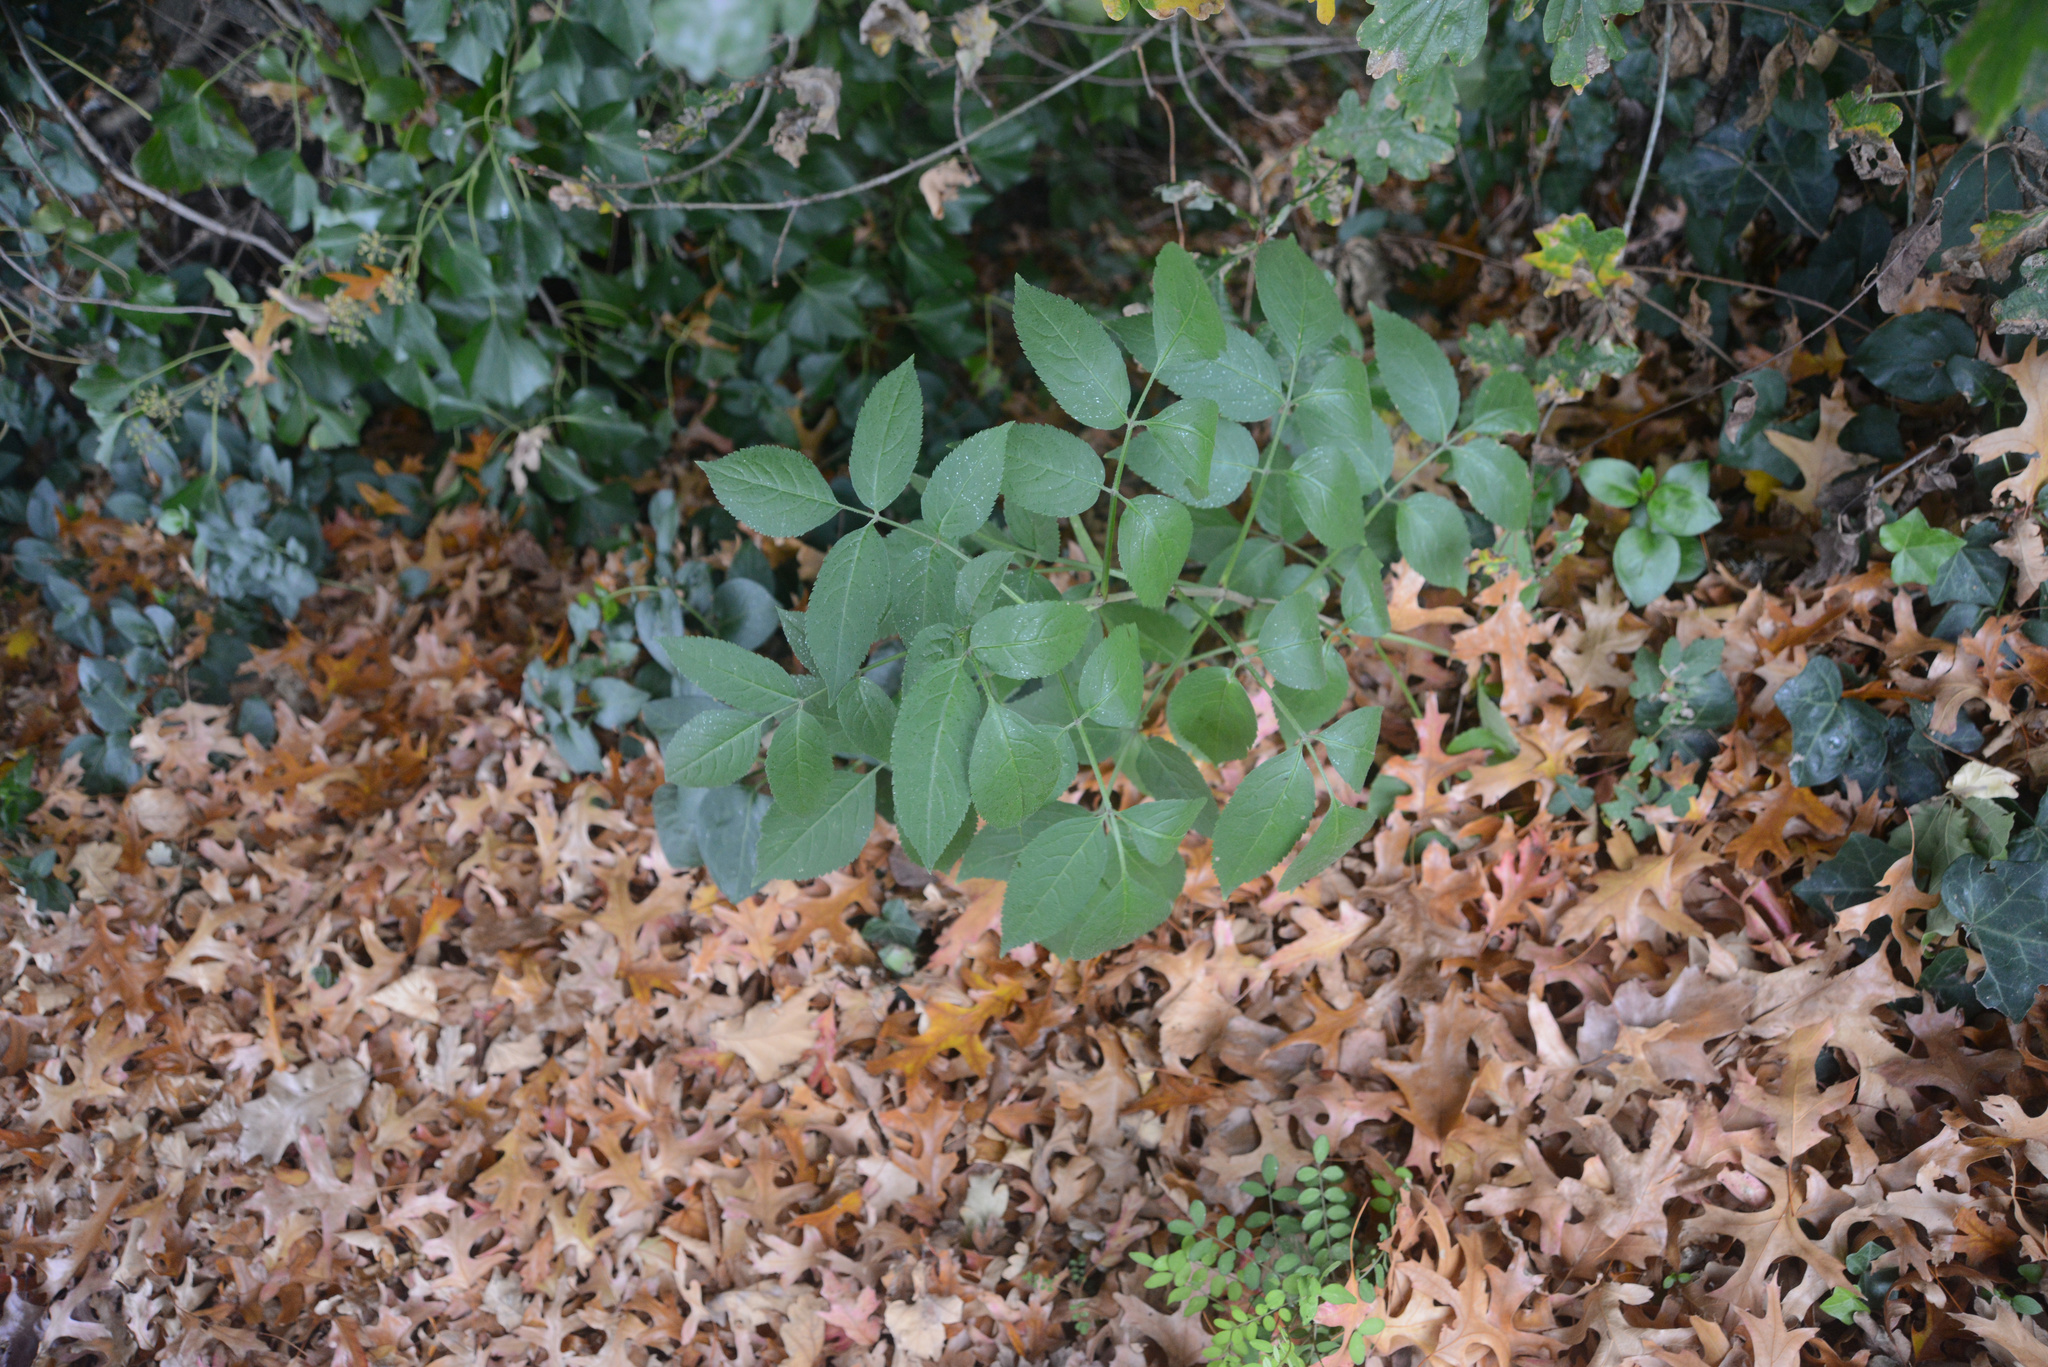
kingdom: Plantae
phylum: Tracheophyta
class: Magnoliopsida
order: Dipsacales
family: Viburnaceae
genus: Sambucus
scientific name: Sambucus nigra
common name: Elder
